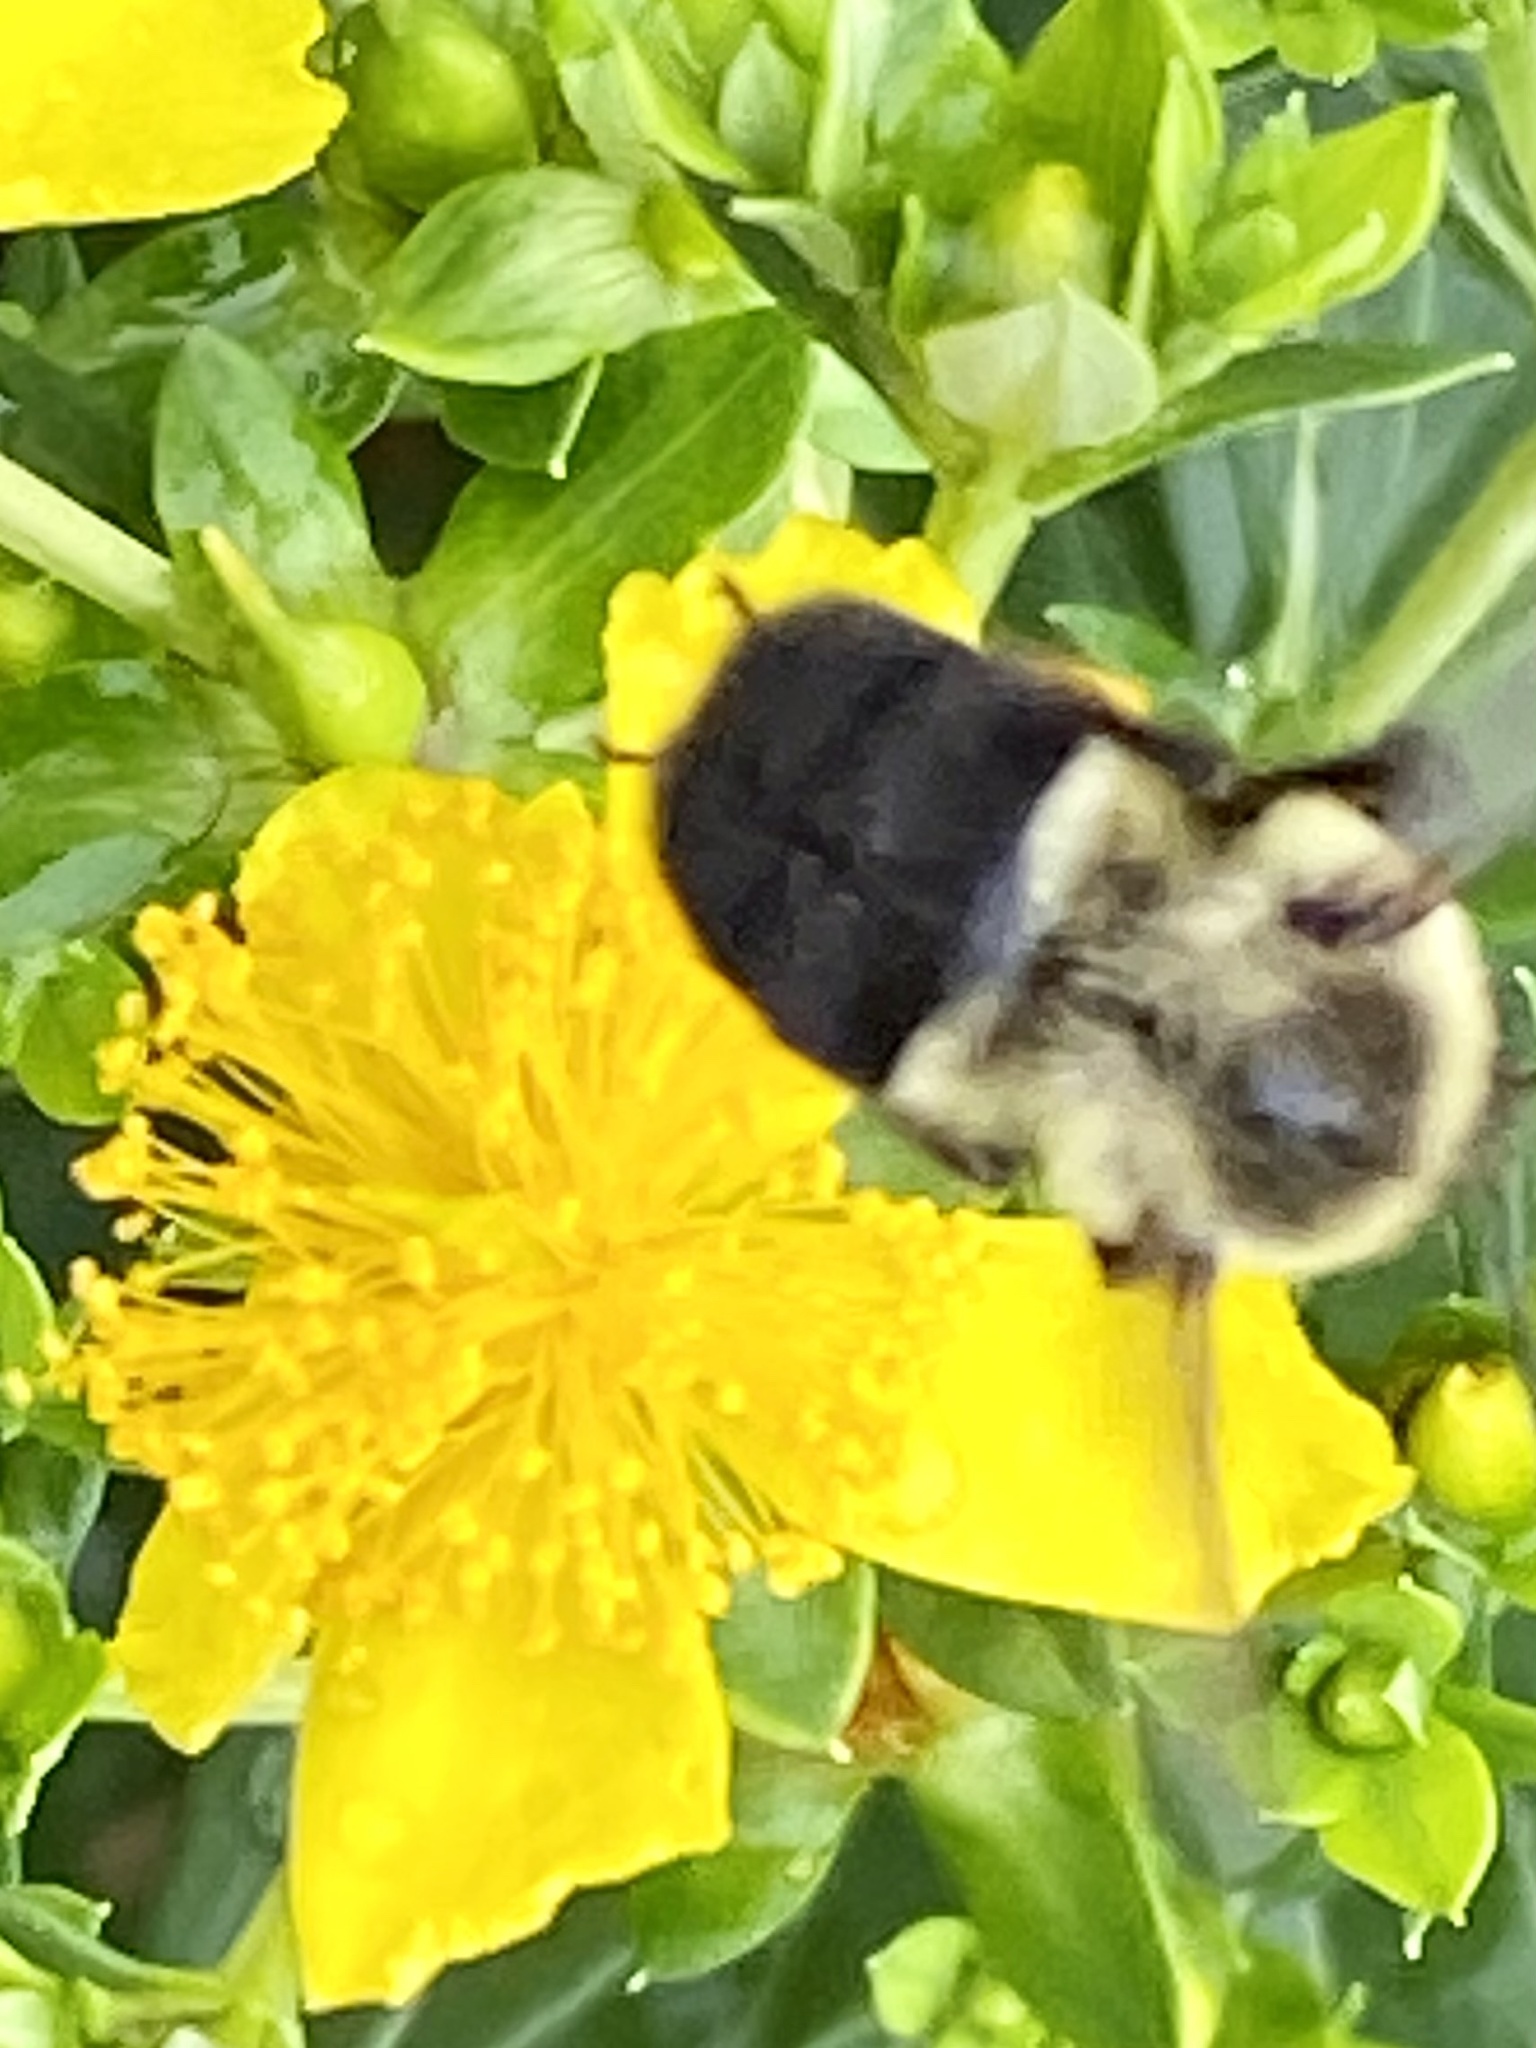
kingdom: Animalia
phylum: Arthropoda
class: Insecta
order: Hymenoptera
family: Apidae
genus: Bombus
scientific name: Bombus impatiens
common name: Common eastern bumble bee
